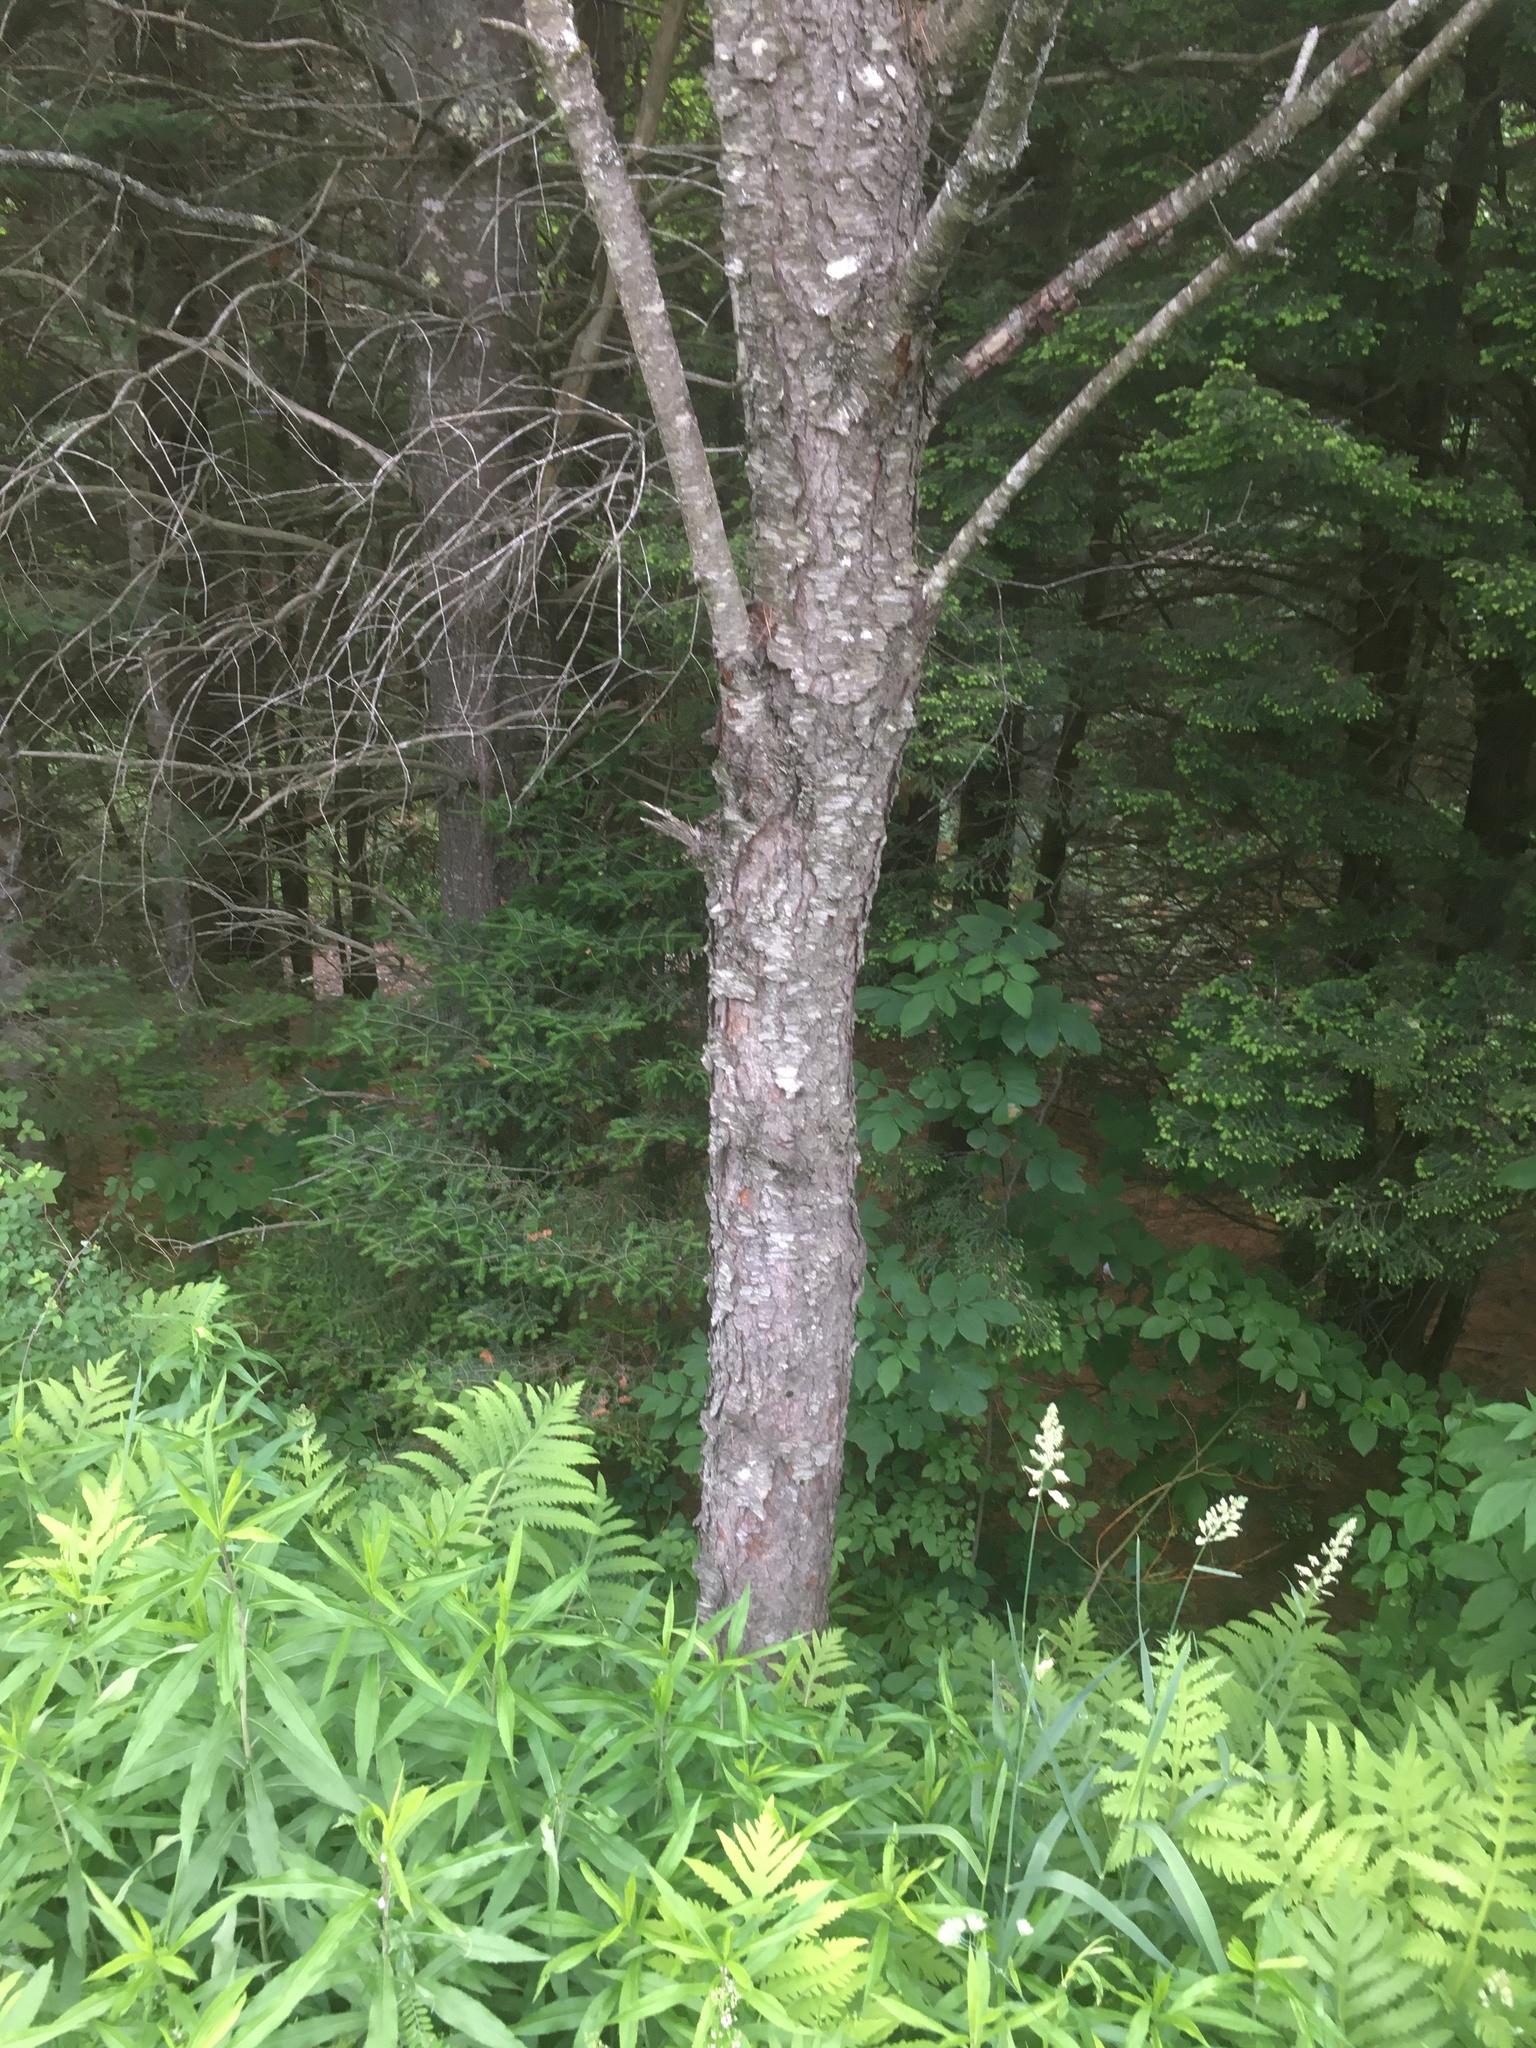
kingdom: Plantae
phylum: Tracheophyta
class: Magnoliopsida
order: Rosales
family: Rosaceae
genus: Prunus
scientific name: Prunus serotina
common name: Black cherry
